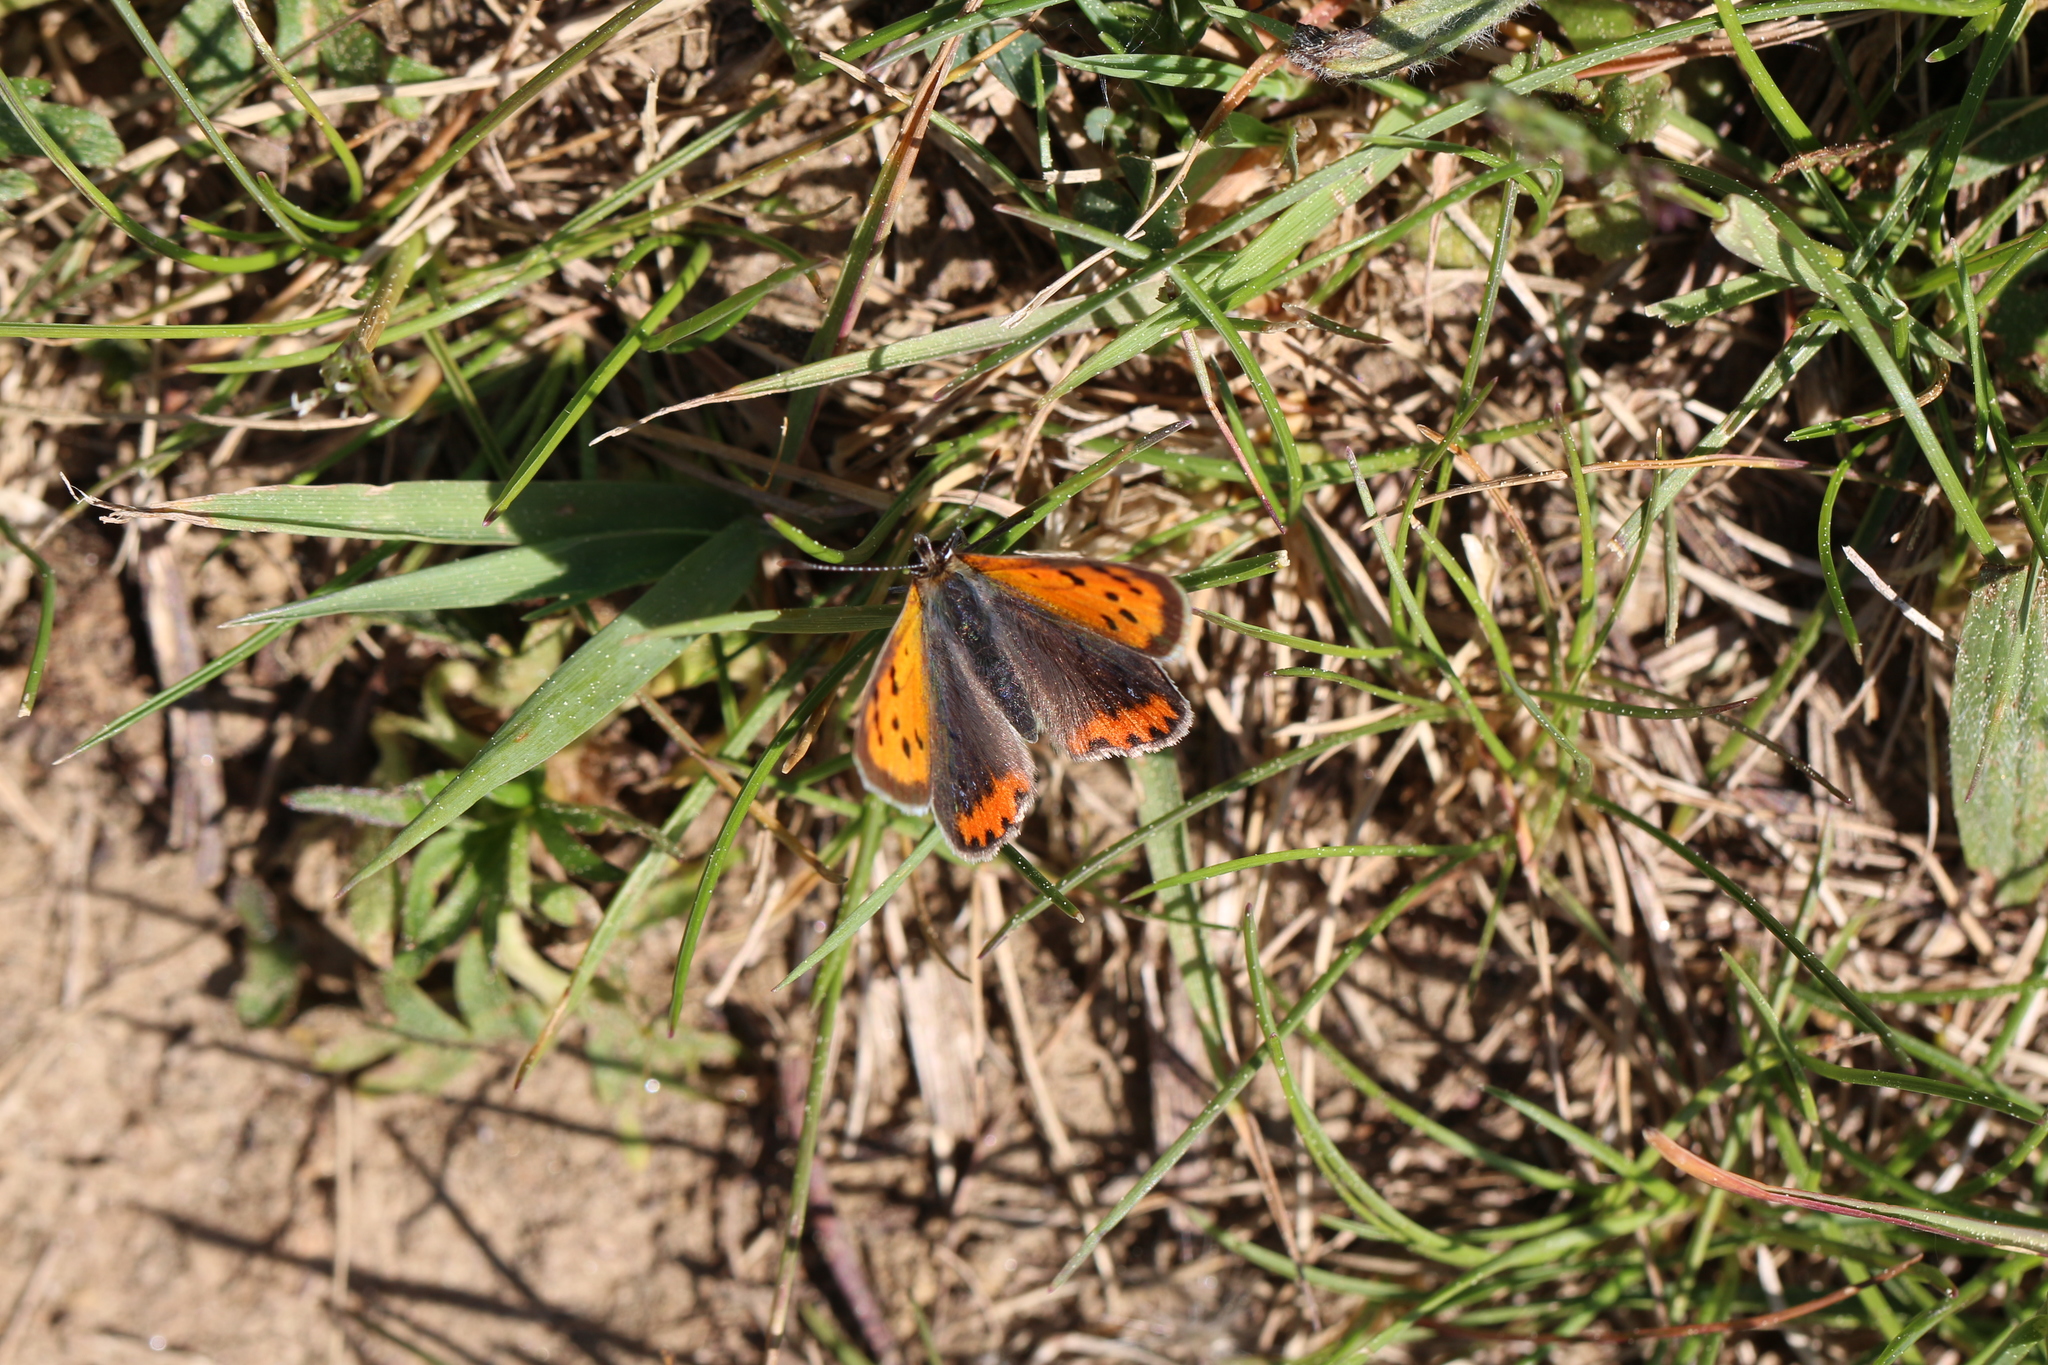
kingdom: Animalia
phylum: Arthropoda
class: Insecta
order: Lepidoptera
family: Lycaenidae
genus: Lycaena
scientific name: Lycaena phlaeas
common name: Small copper
